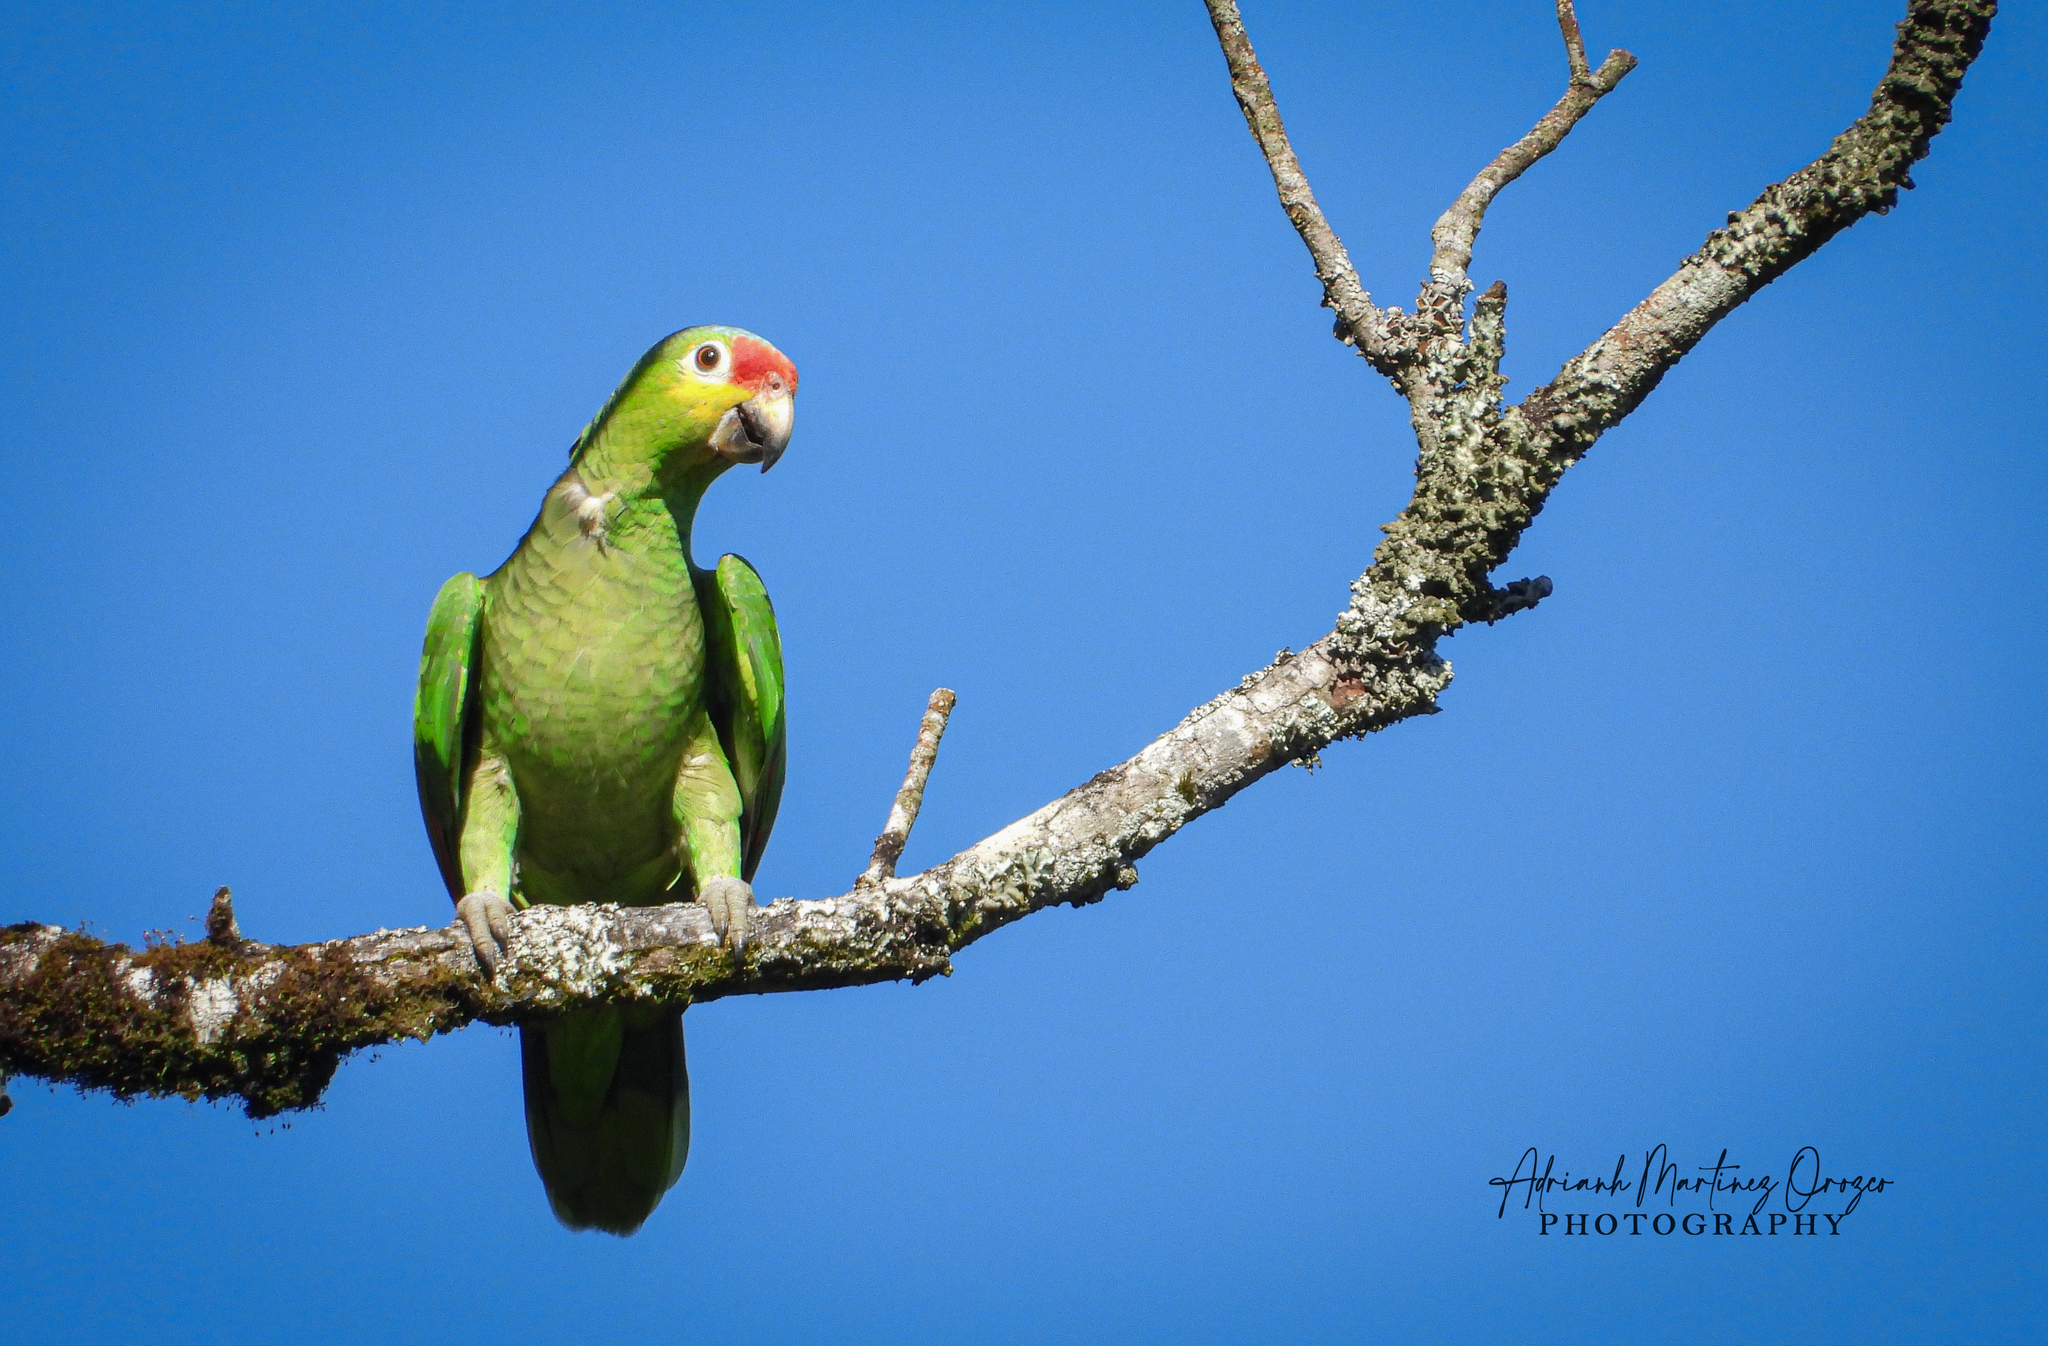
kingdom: Animalia
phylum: Chordata
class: Aves
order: Psittaciformes
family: Psittacidae
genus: Amazona
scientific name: Amazona autumnalis
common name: Red-lored amazon
